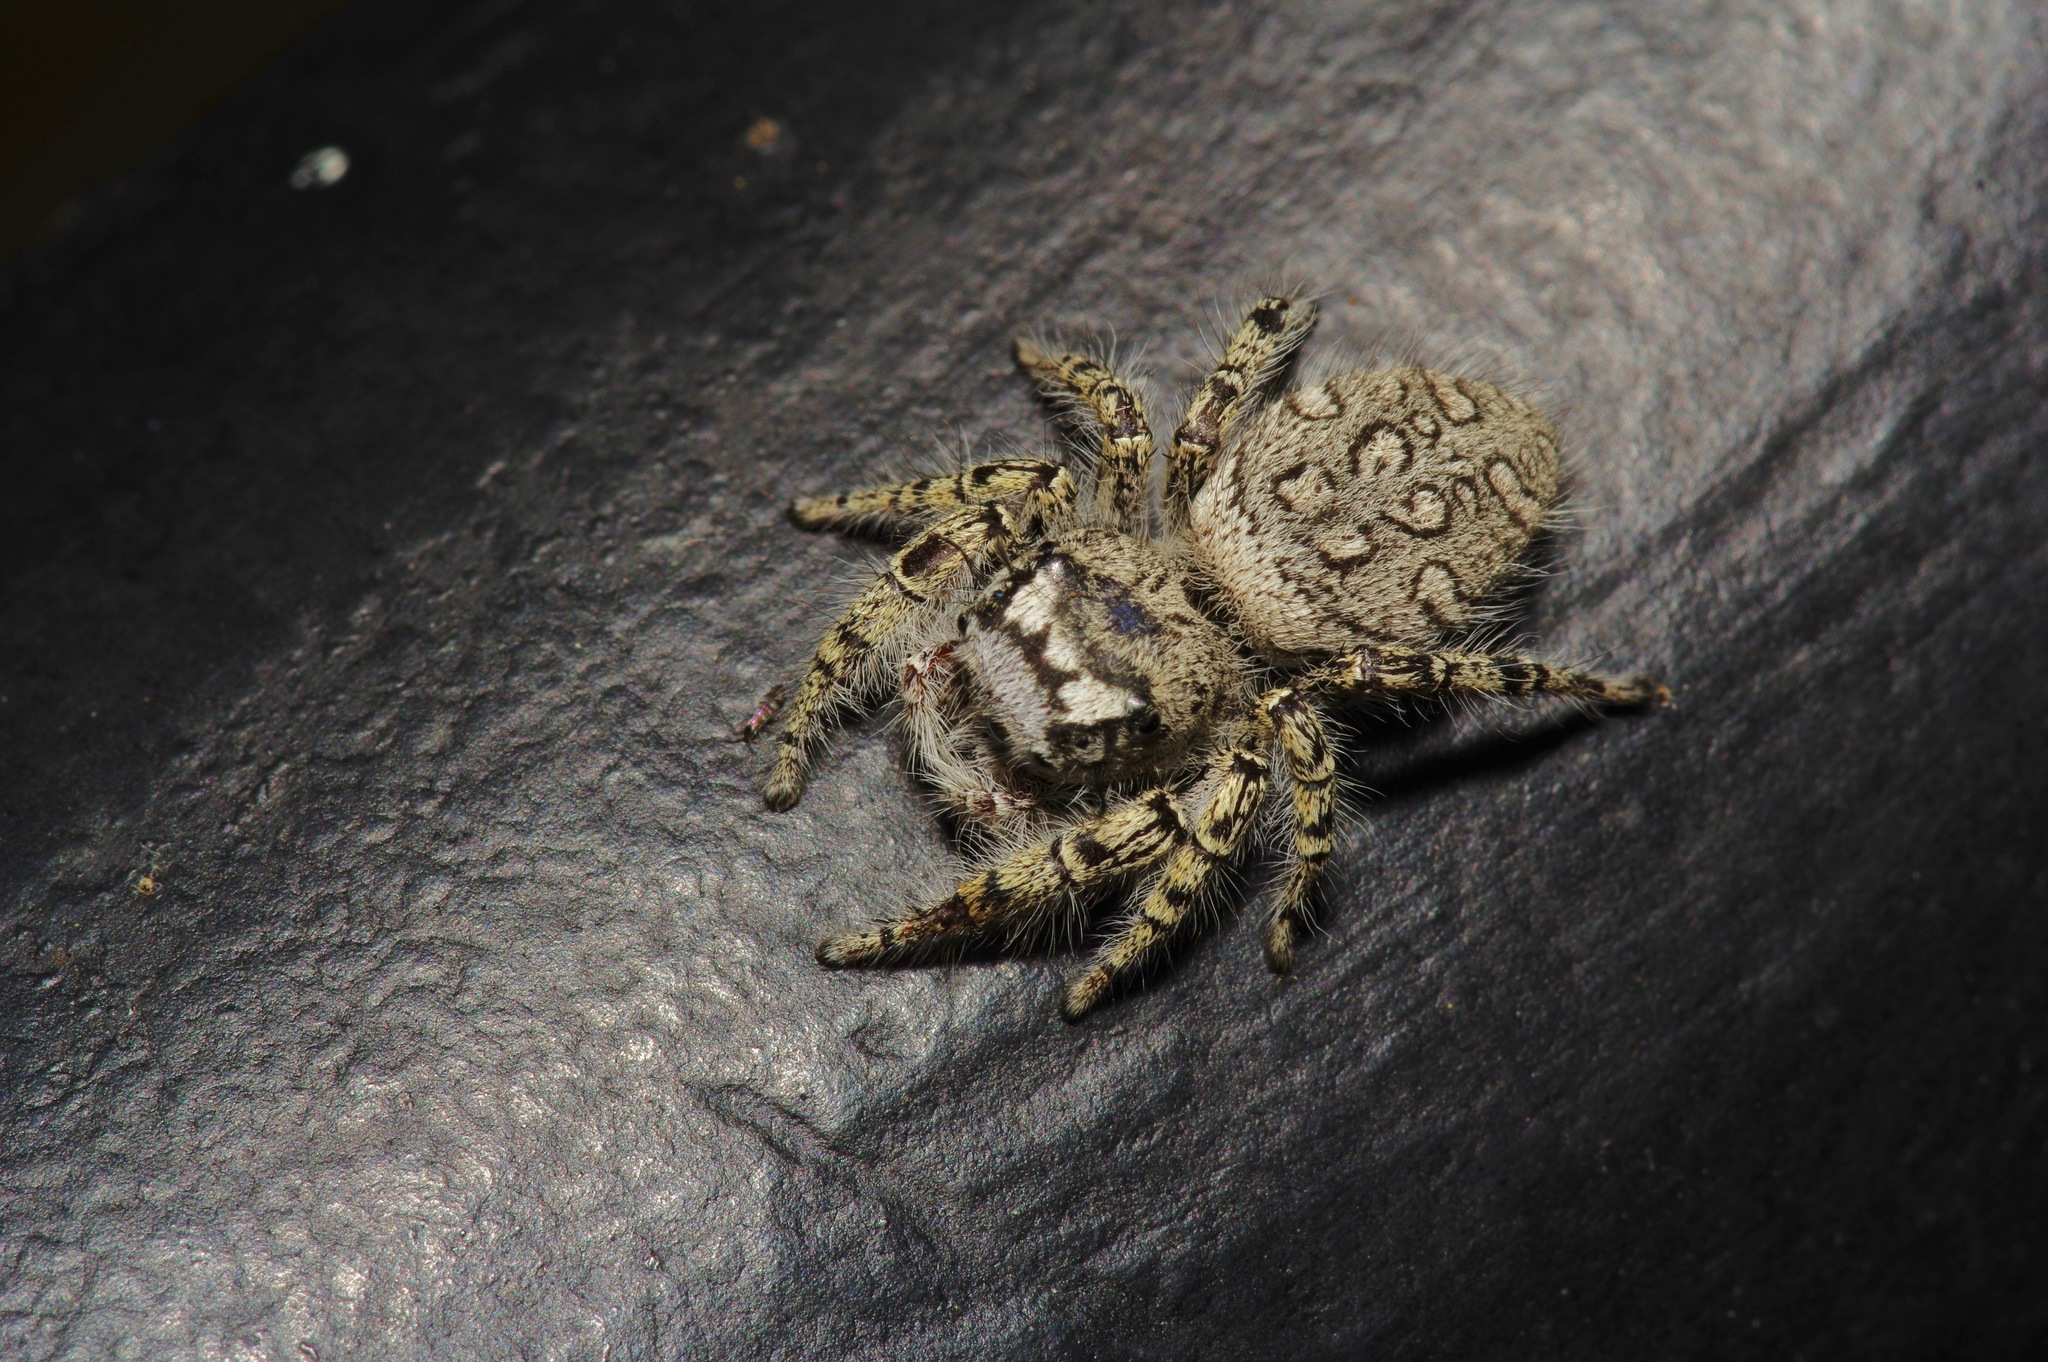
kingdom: Animalia
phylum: Arthropoda
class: Arachnida
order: Araneae
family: Salticidae
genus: Phidippus
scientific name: Phidippus mystaceus
